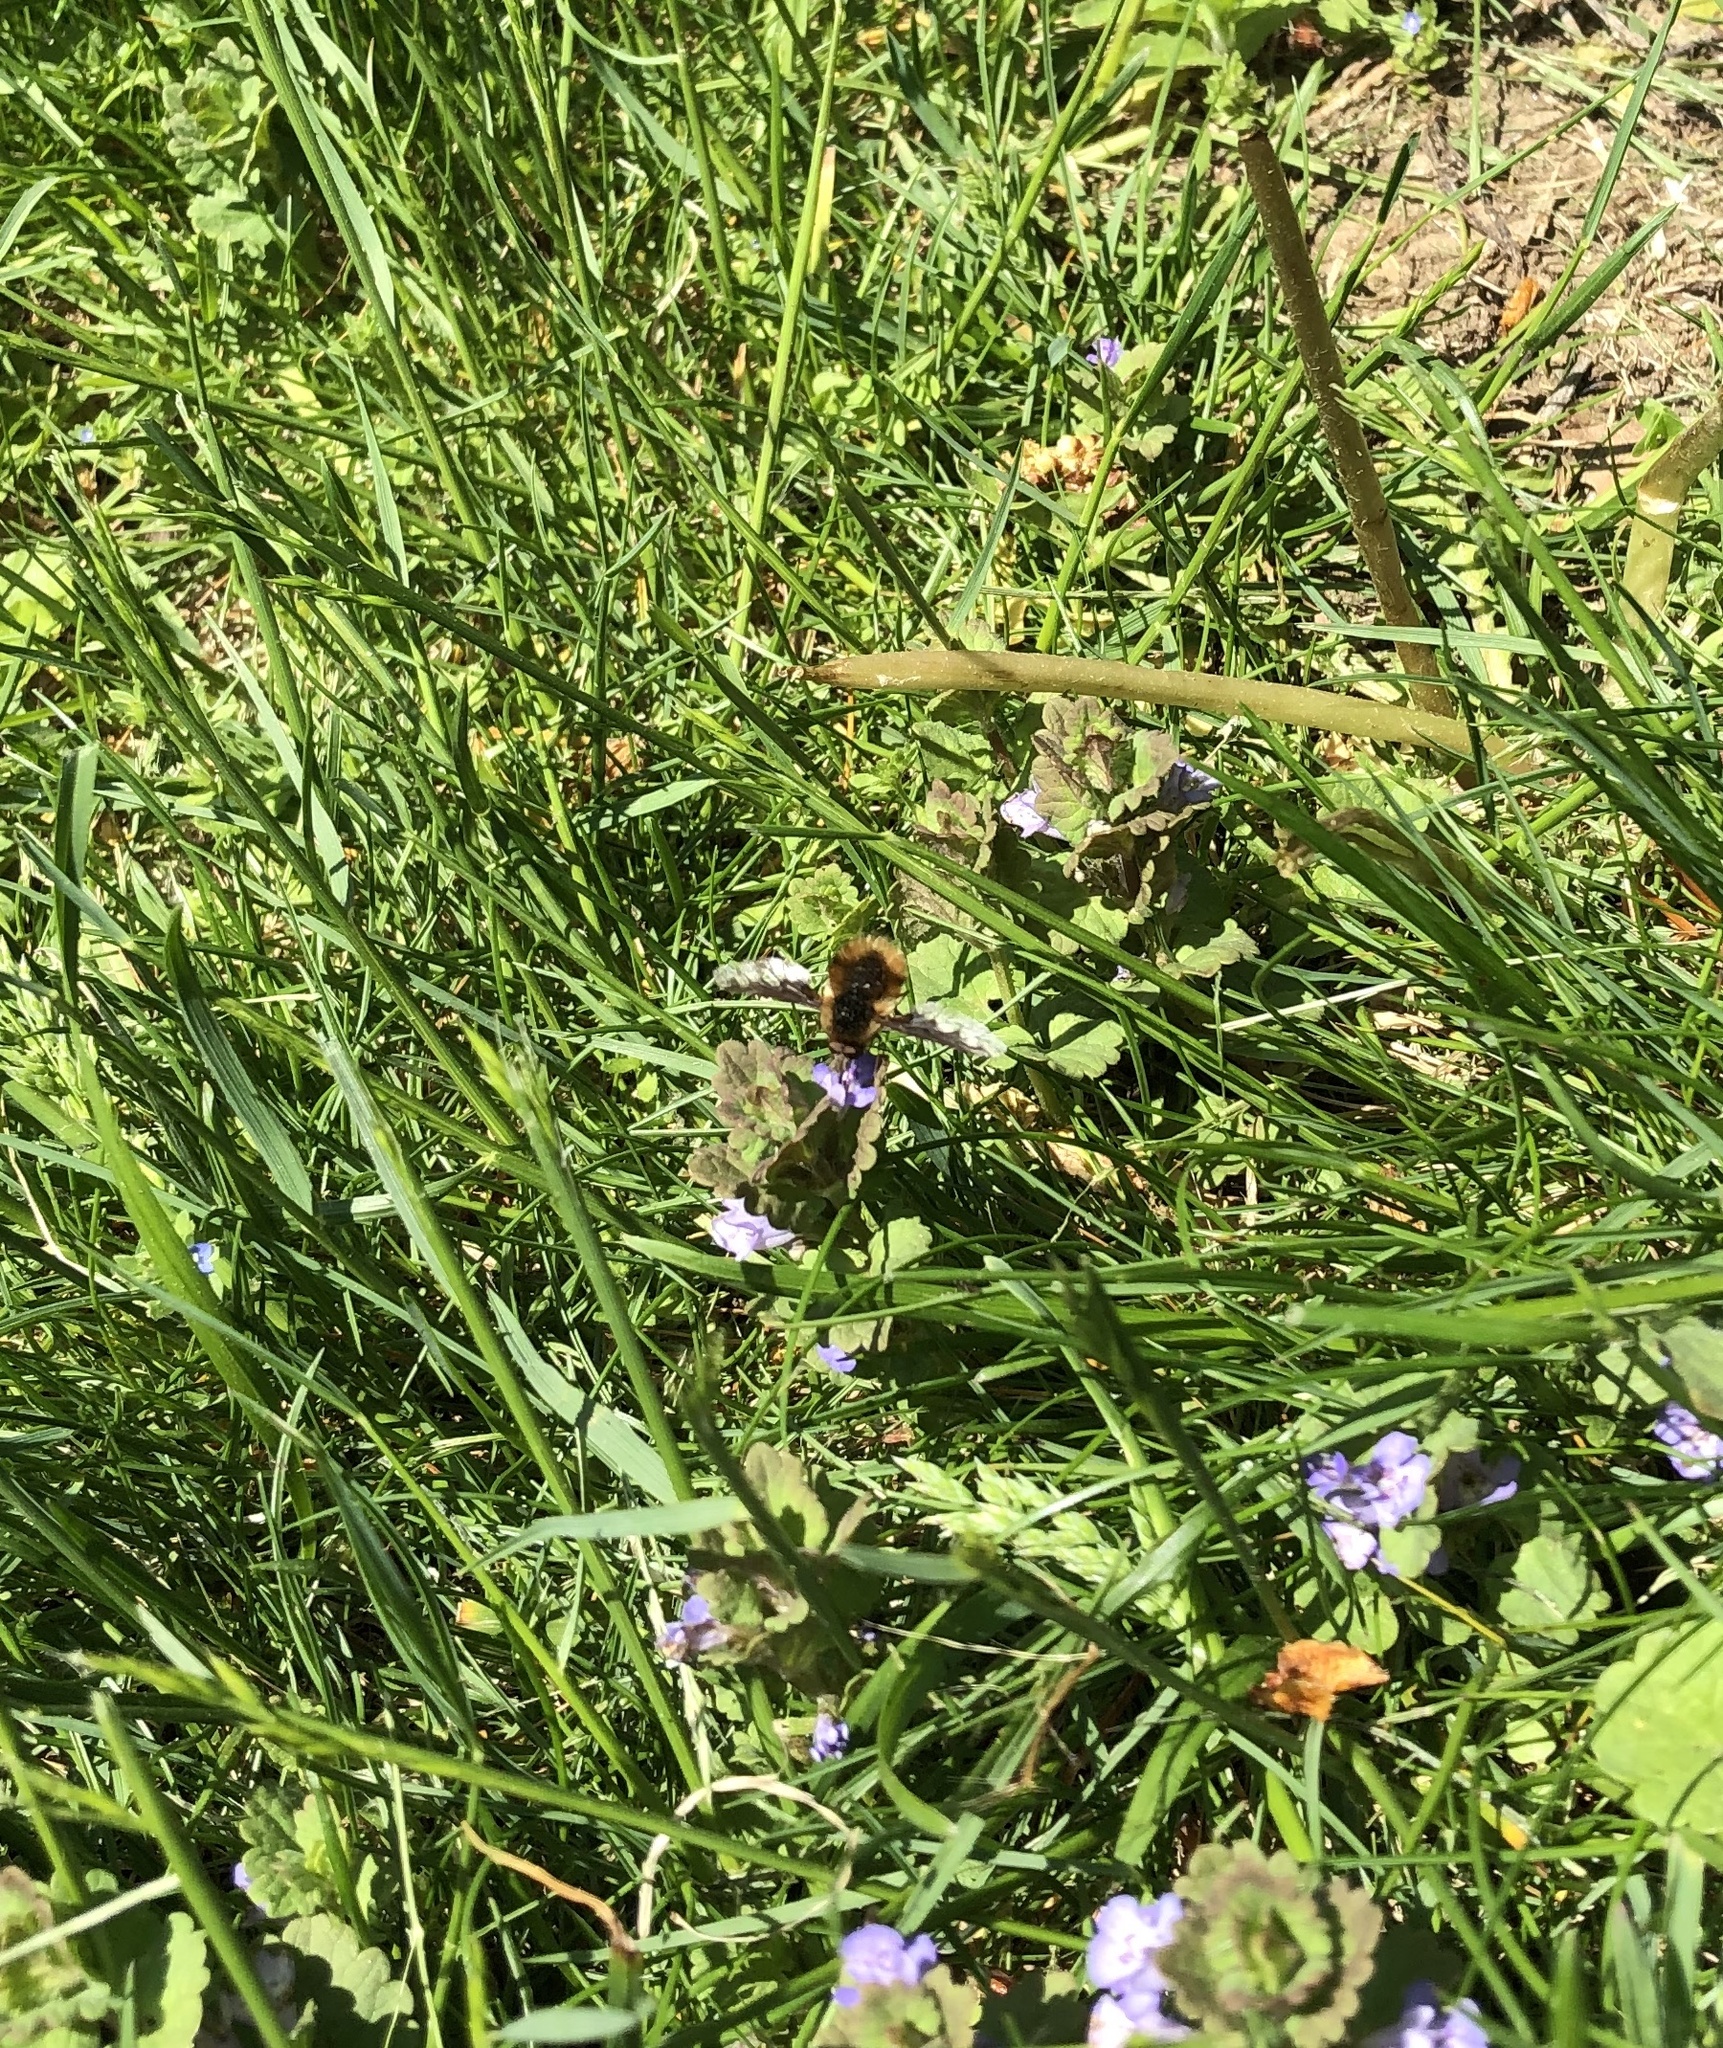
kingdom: Animalia
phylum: Arthropoda
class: Insecta
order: Diptera
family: Bombyliidae
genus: Bombylius
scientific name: Bombylius major
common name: Bee fly
